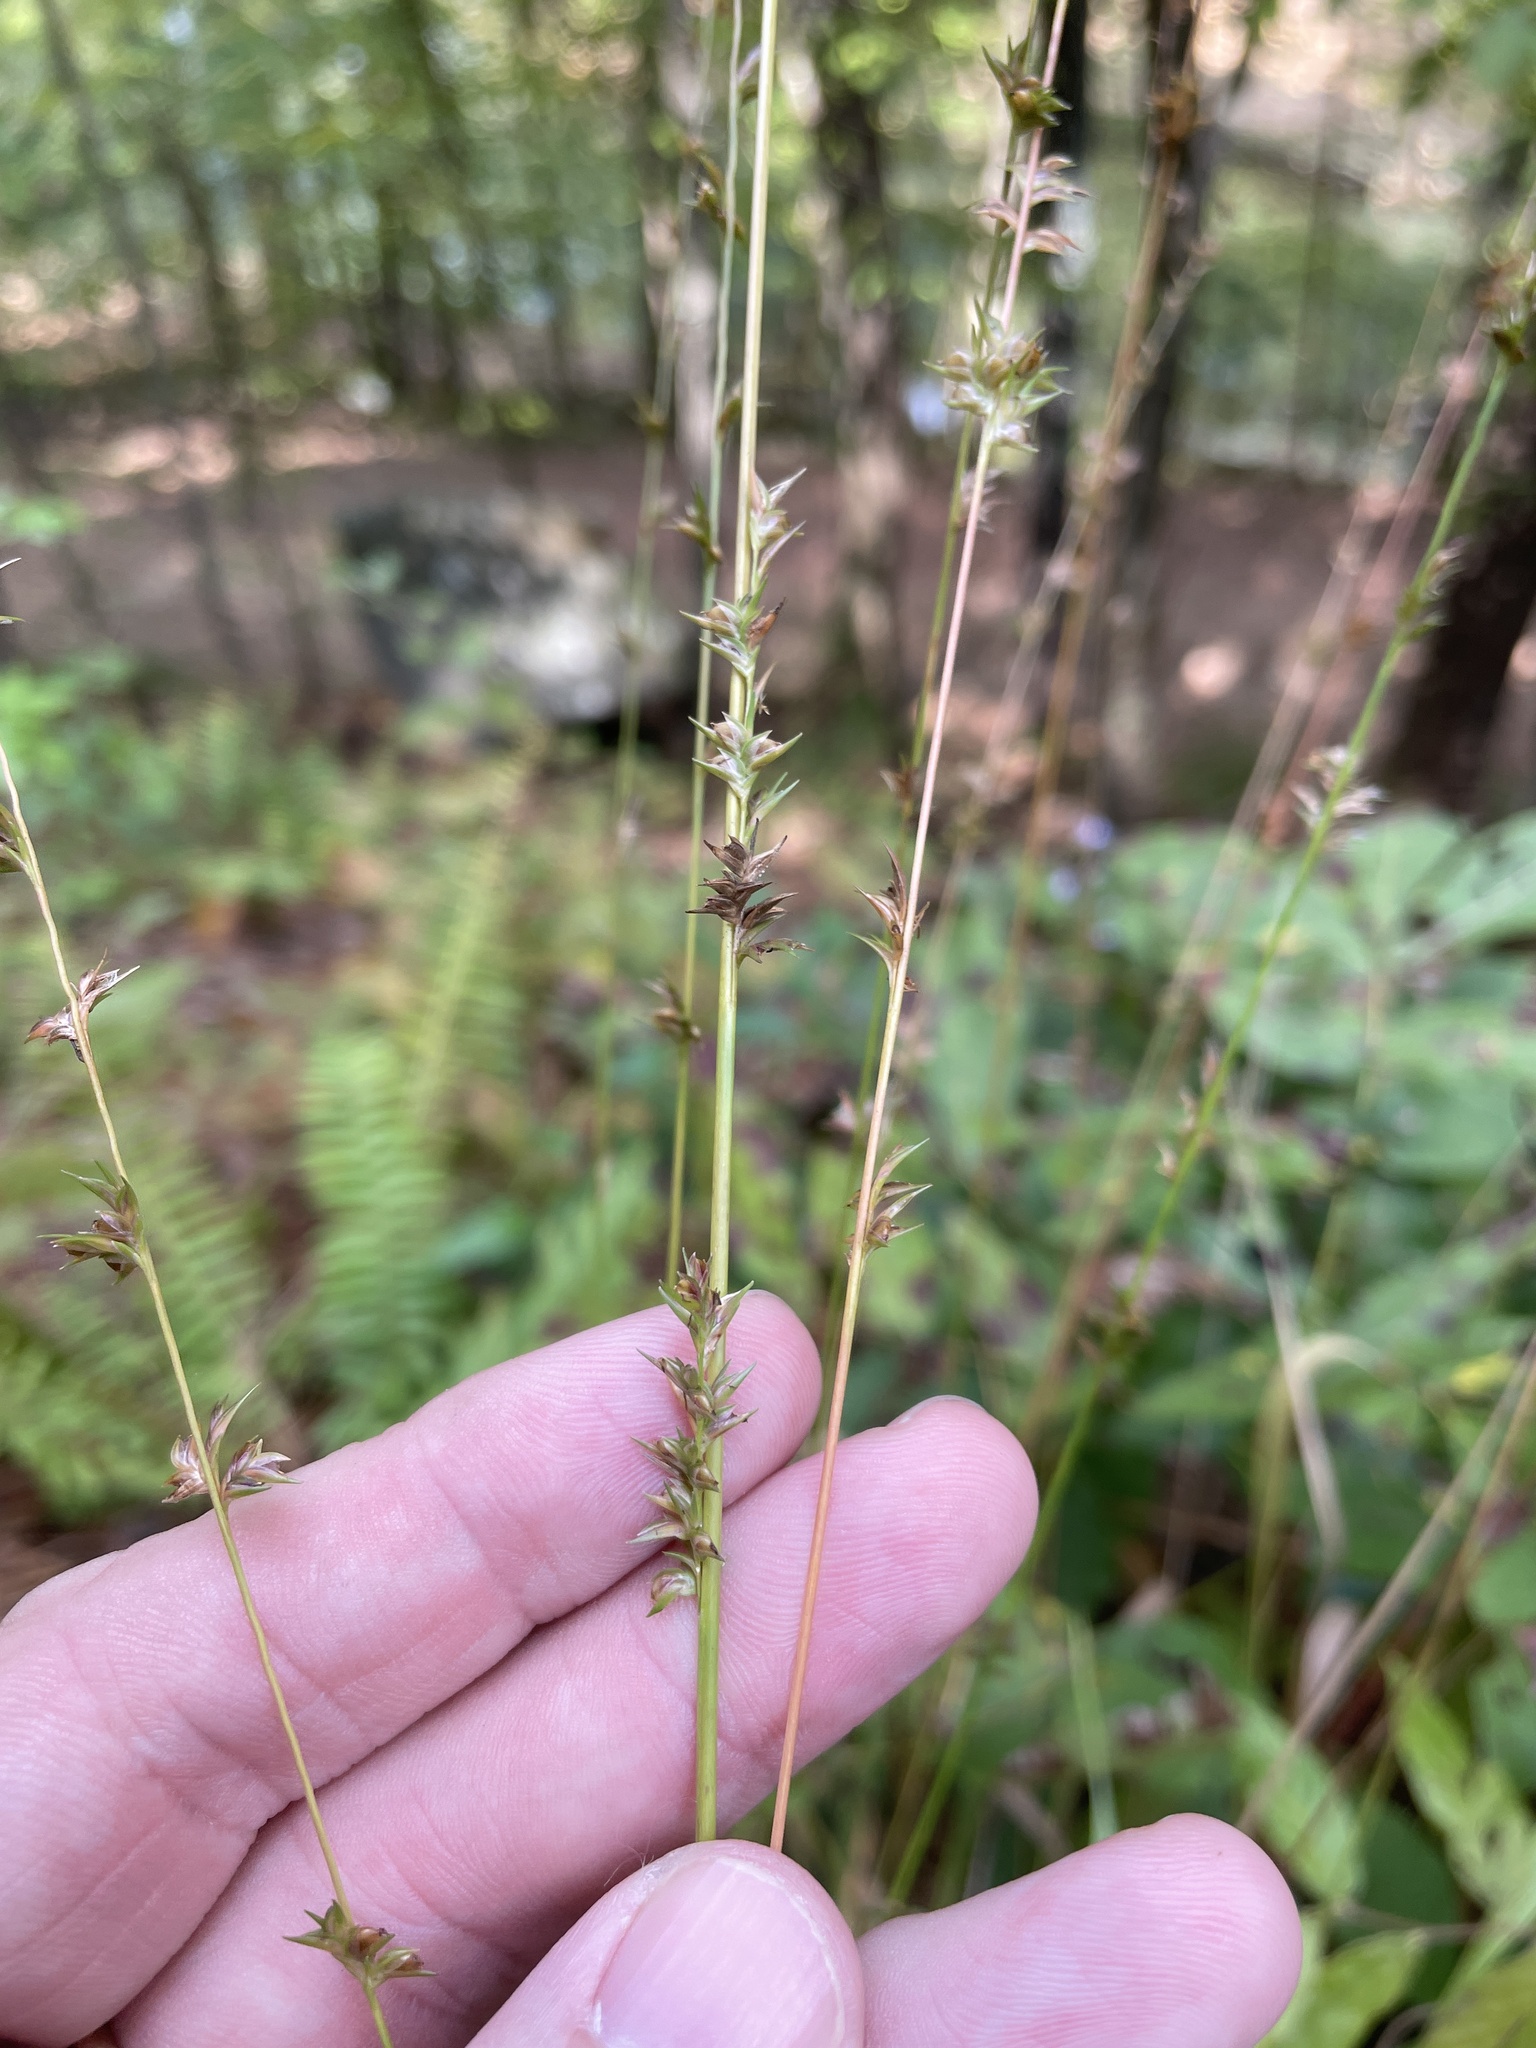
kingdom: Plantae
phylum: Tracheophyta
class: Liliopsida
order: Poales
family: Poaceae
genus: Chasmanthium
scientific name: Chasmanthium laxum
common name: Slender chasmanthium
